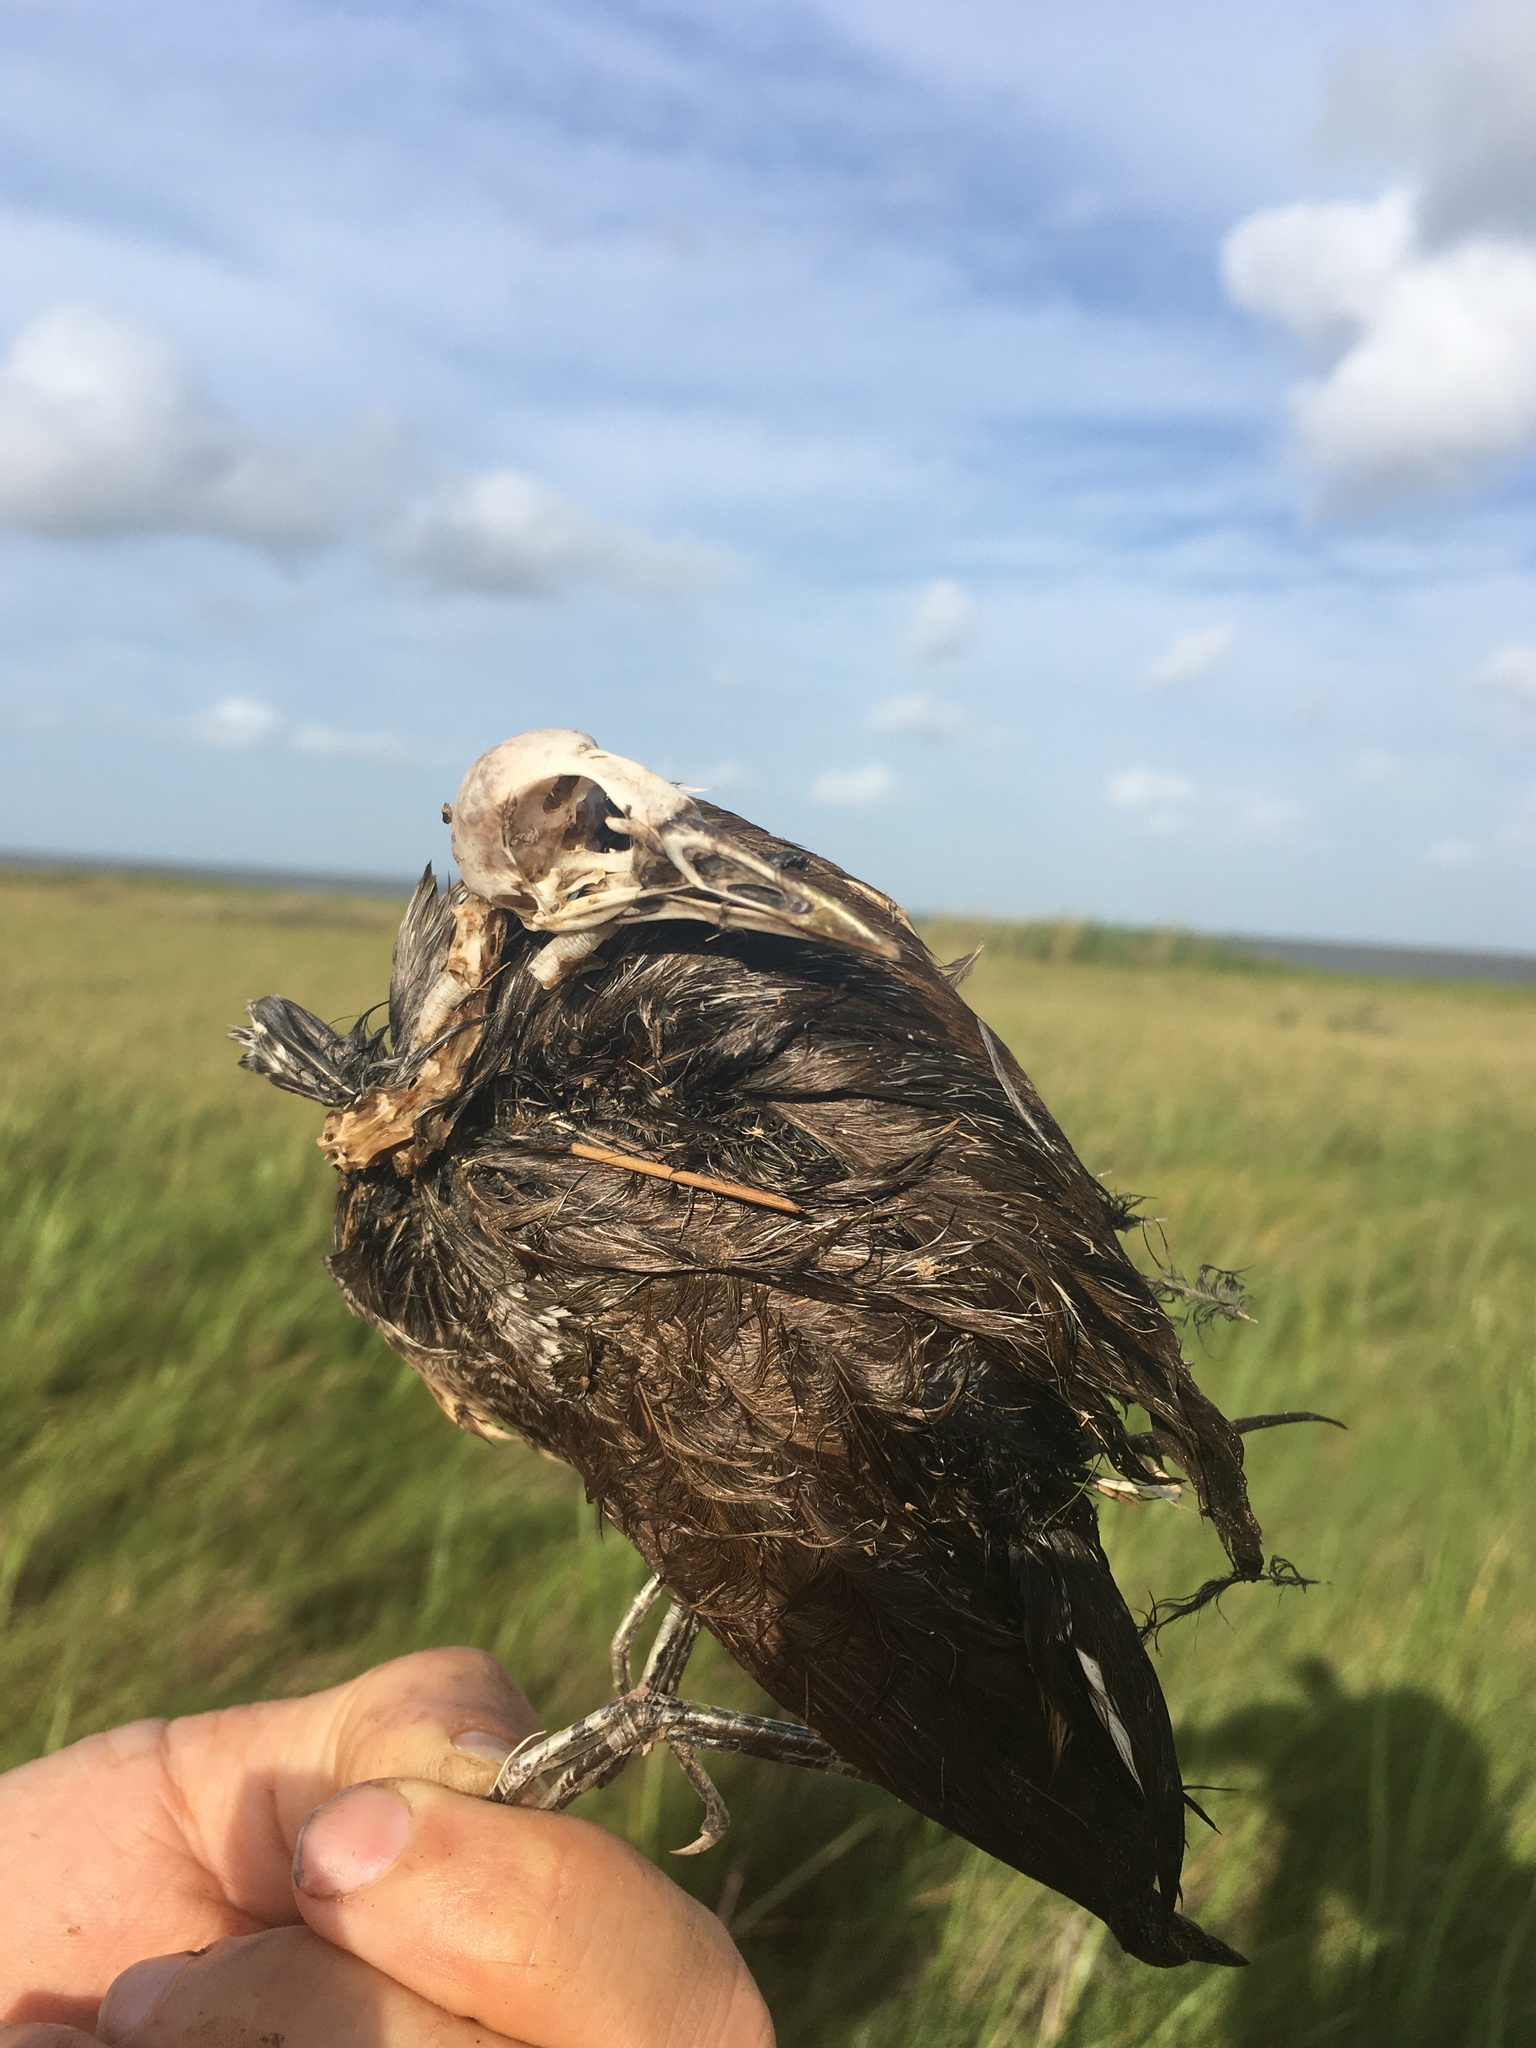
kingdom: Animalia
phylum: Chordata
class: Aves
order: Gruiformes
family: Rallidae
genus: Porzana
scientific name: Porzana carolina
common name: Sora
